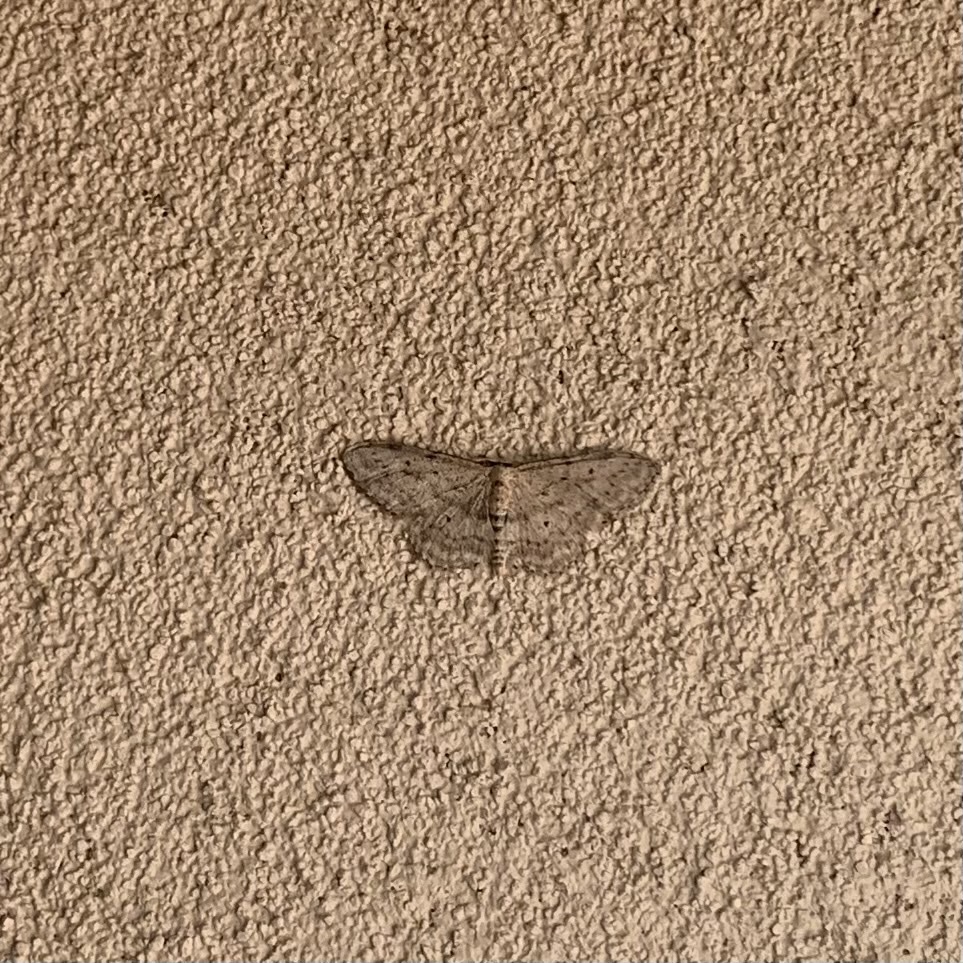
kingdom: Animalia
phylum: Arthropoda
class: Insecta
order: Lepidoptera
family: Geometridae
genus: Idaea
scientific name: Idaea seriata
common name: Small dusty wave
